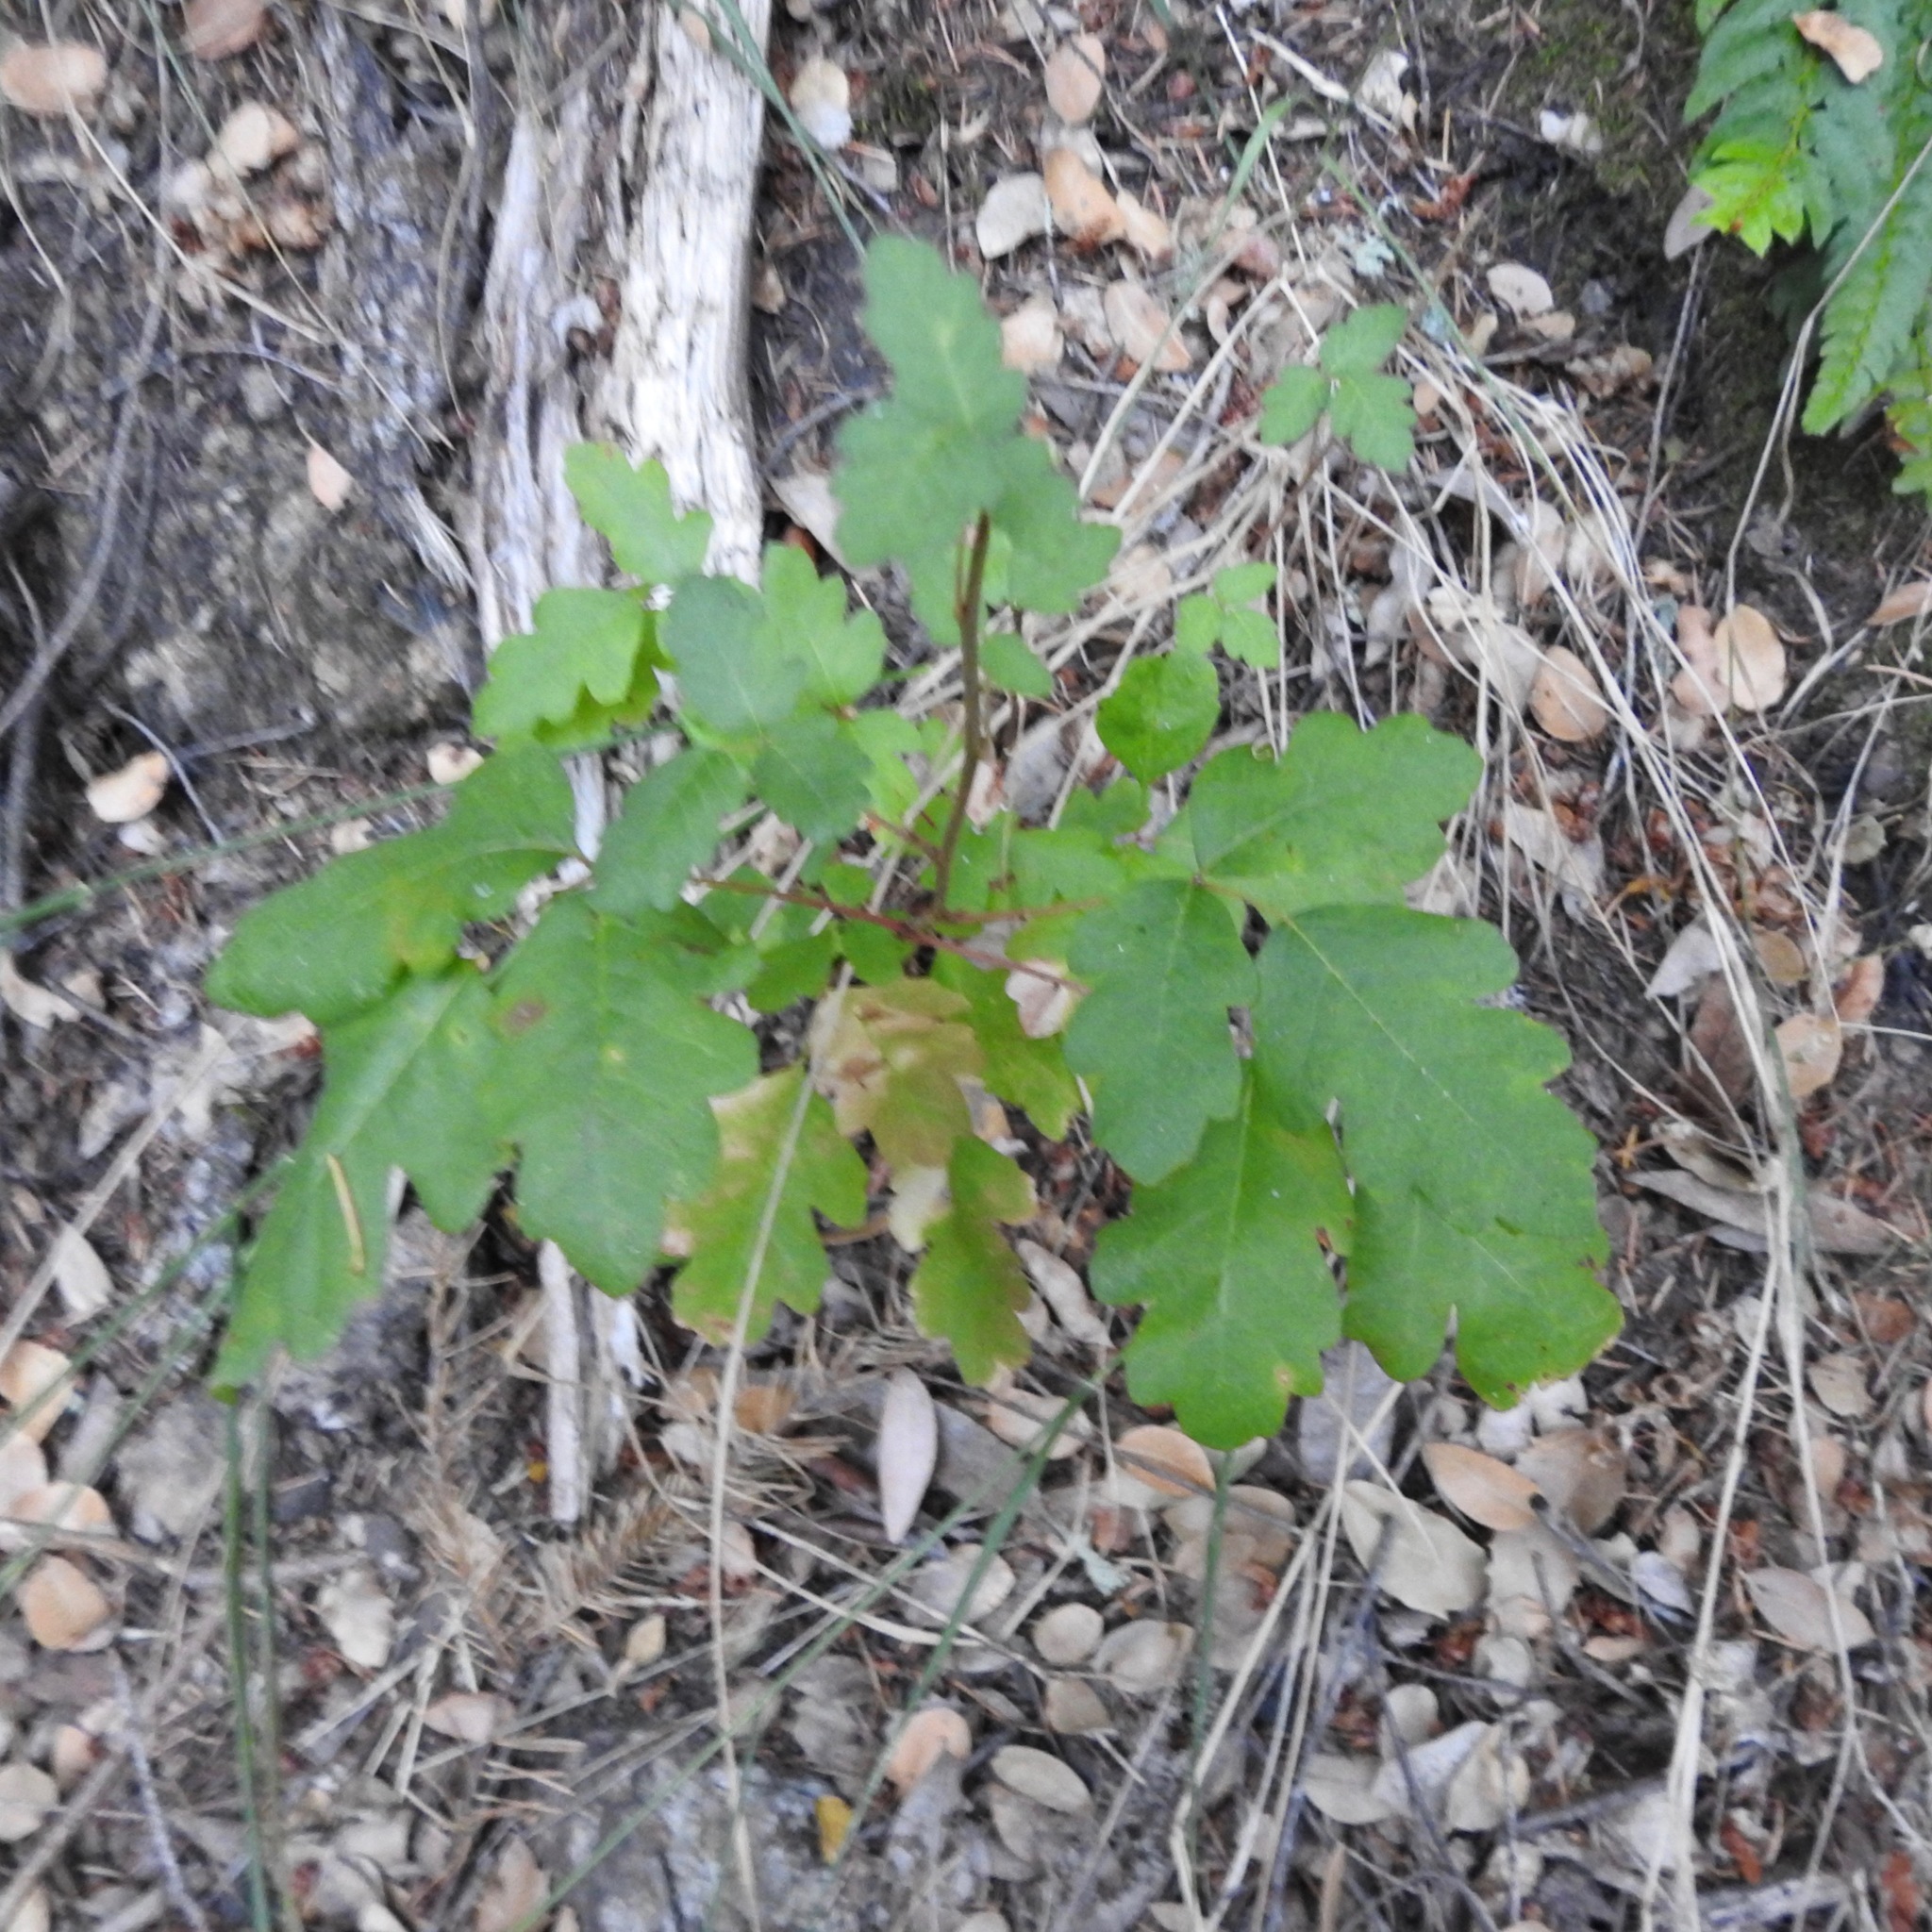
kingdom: Plantae
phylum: Tracheophyta
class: Magnoliopsida
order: Sapindales
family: Anacardiaceae
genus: Toxicodendron
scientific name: Toxicodendron diversilobum
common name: Pacific poison-oak
